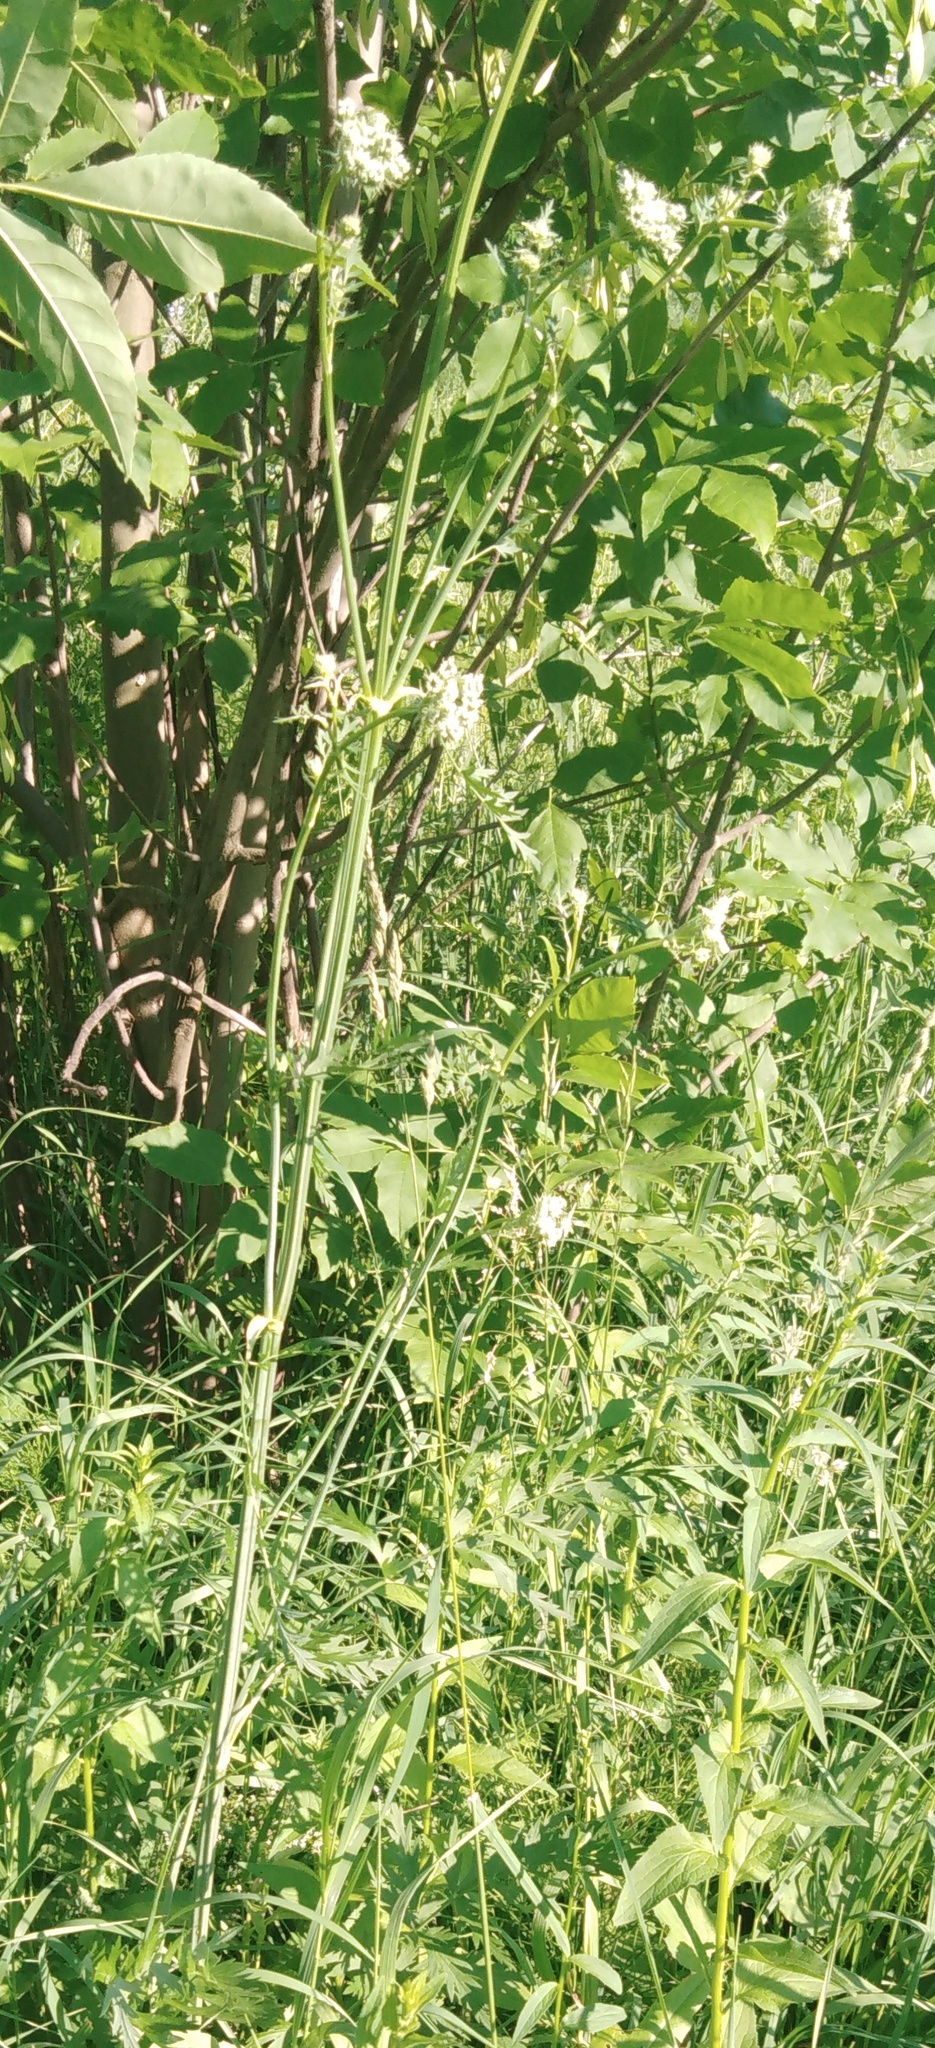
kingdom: Plantae
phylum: Tracheophyta
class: Magnoliopsida
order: Apiales
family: Apiaceae
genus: Seseli
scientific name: Seseli libanotis
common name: Mooncarrot
